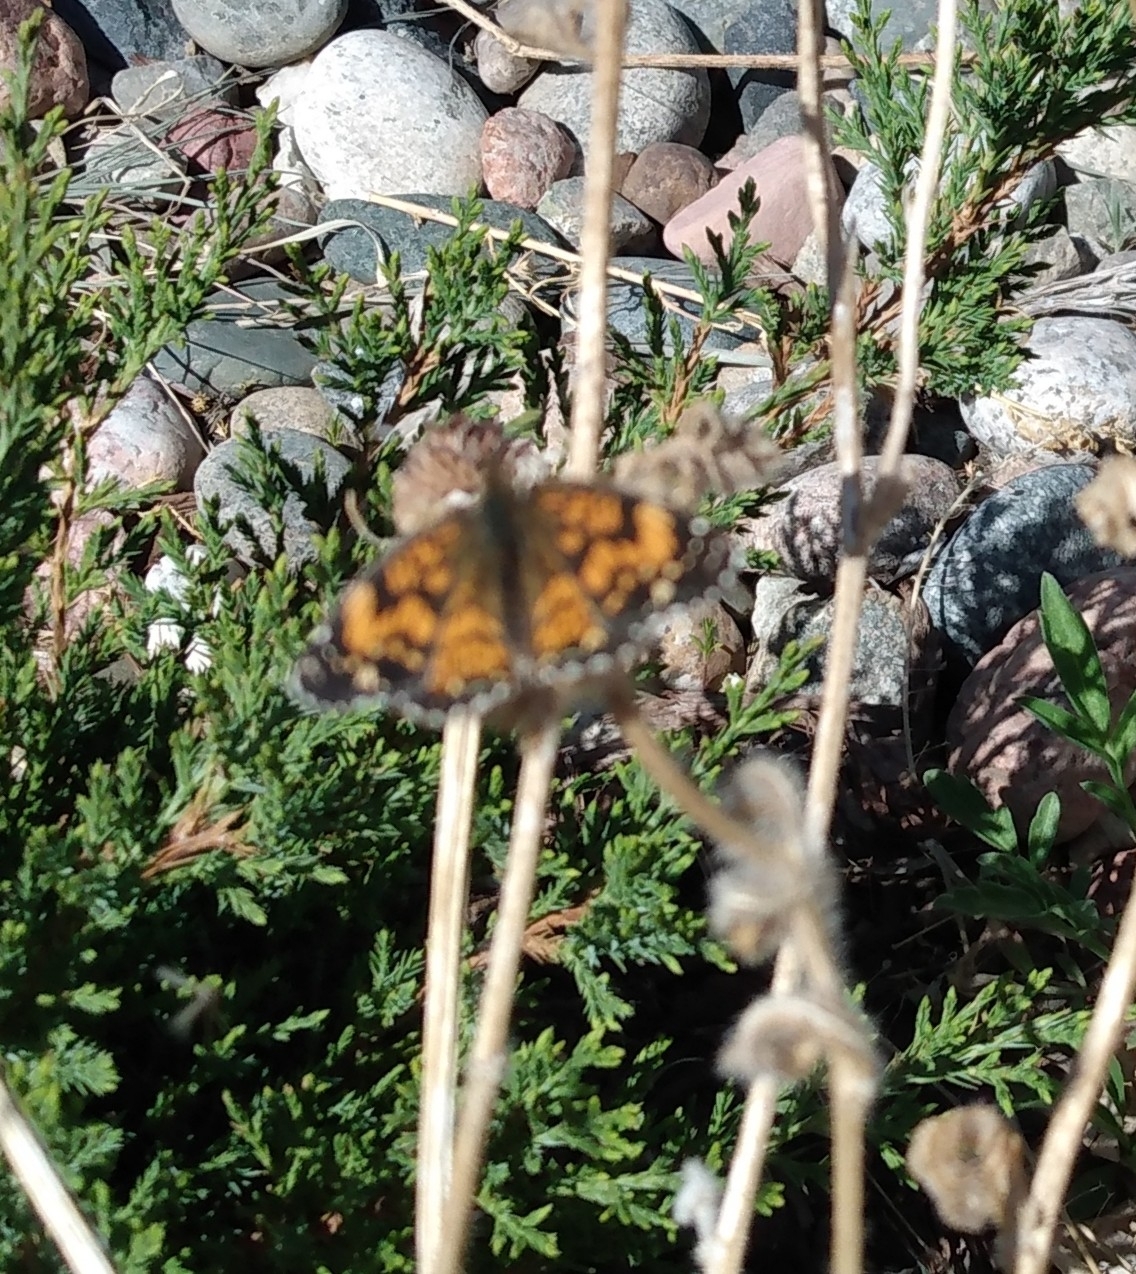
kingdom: Animalia
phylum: Arthropoda
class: Insecta
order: Lepidoptera
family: Nymphalidae
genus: Chlosyne
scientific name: Chlosyne gorgone
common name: Gorgone checkerspot
